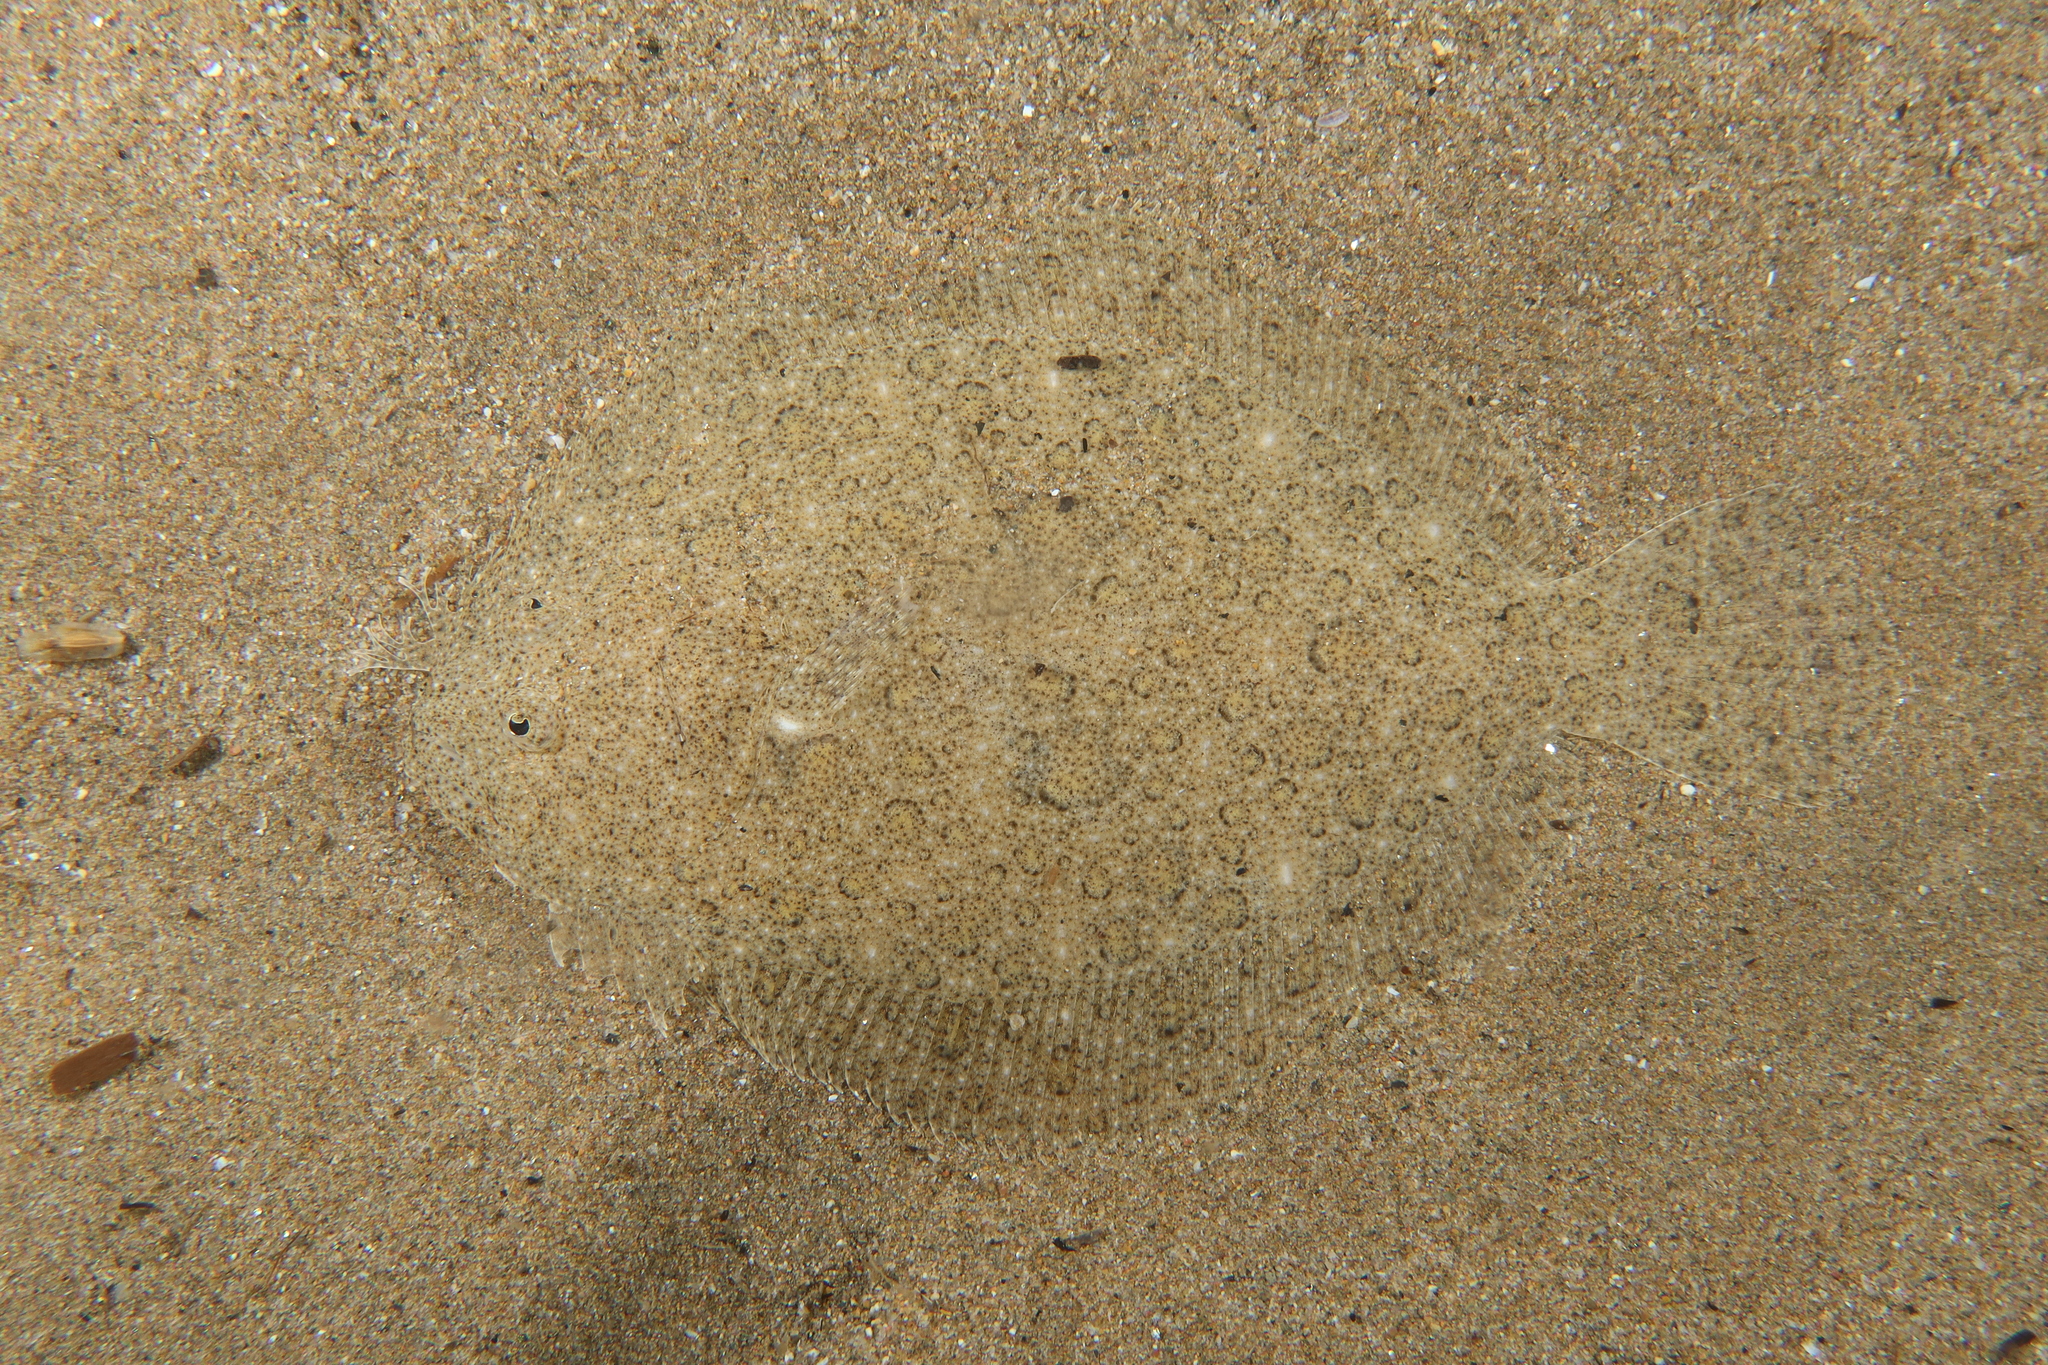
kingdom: Animalia
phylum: Chordata
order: Pleuronectiformes
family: Scophthalmidae
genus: Scophthalmus
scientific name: Scophthalmus rhombus
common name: Brill
